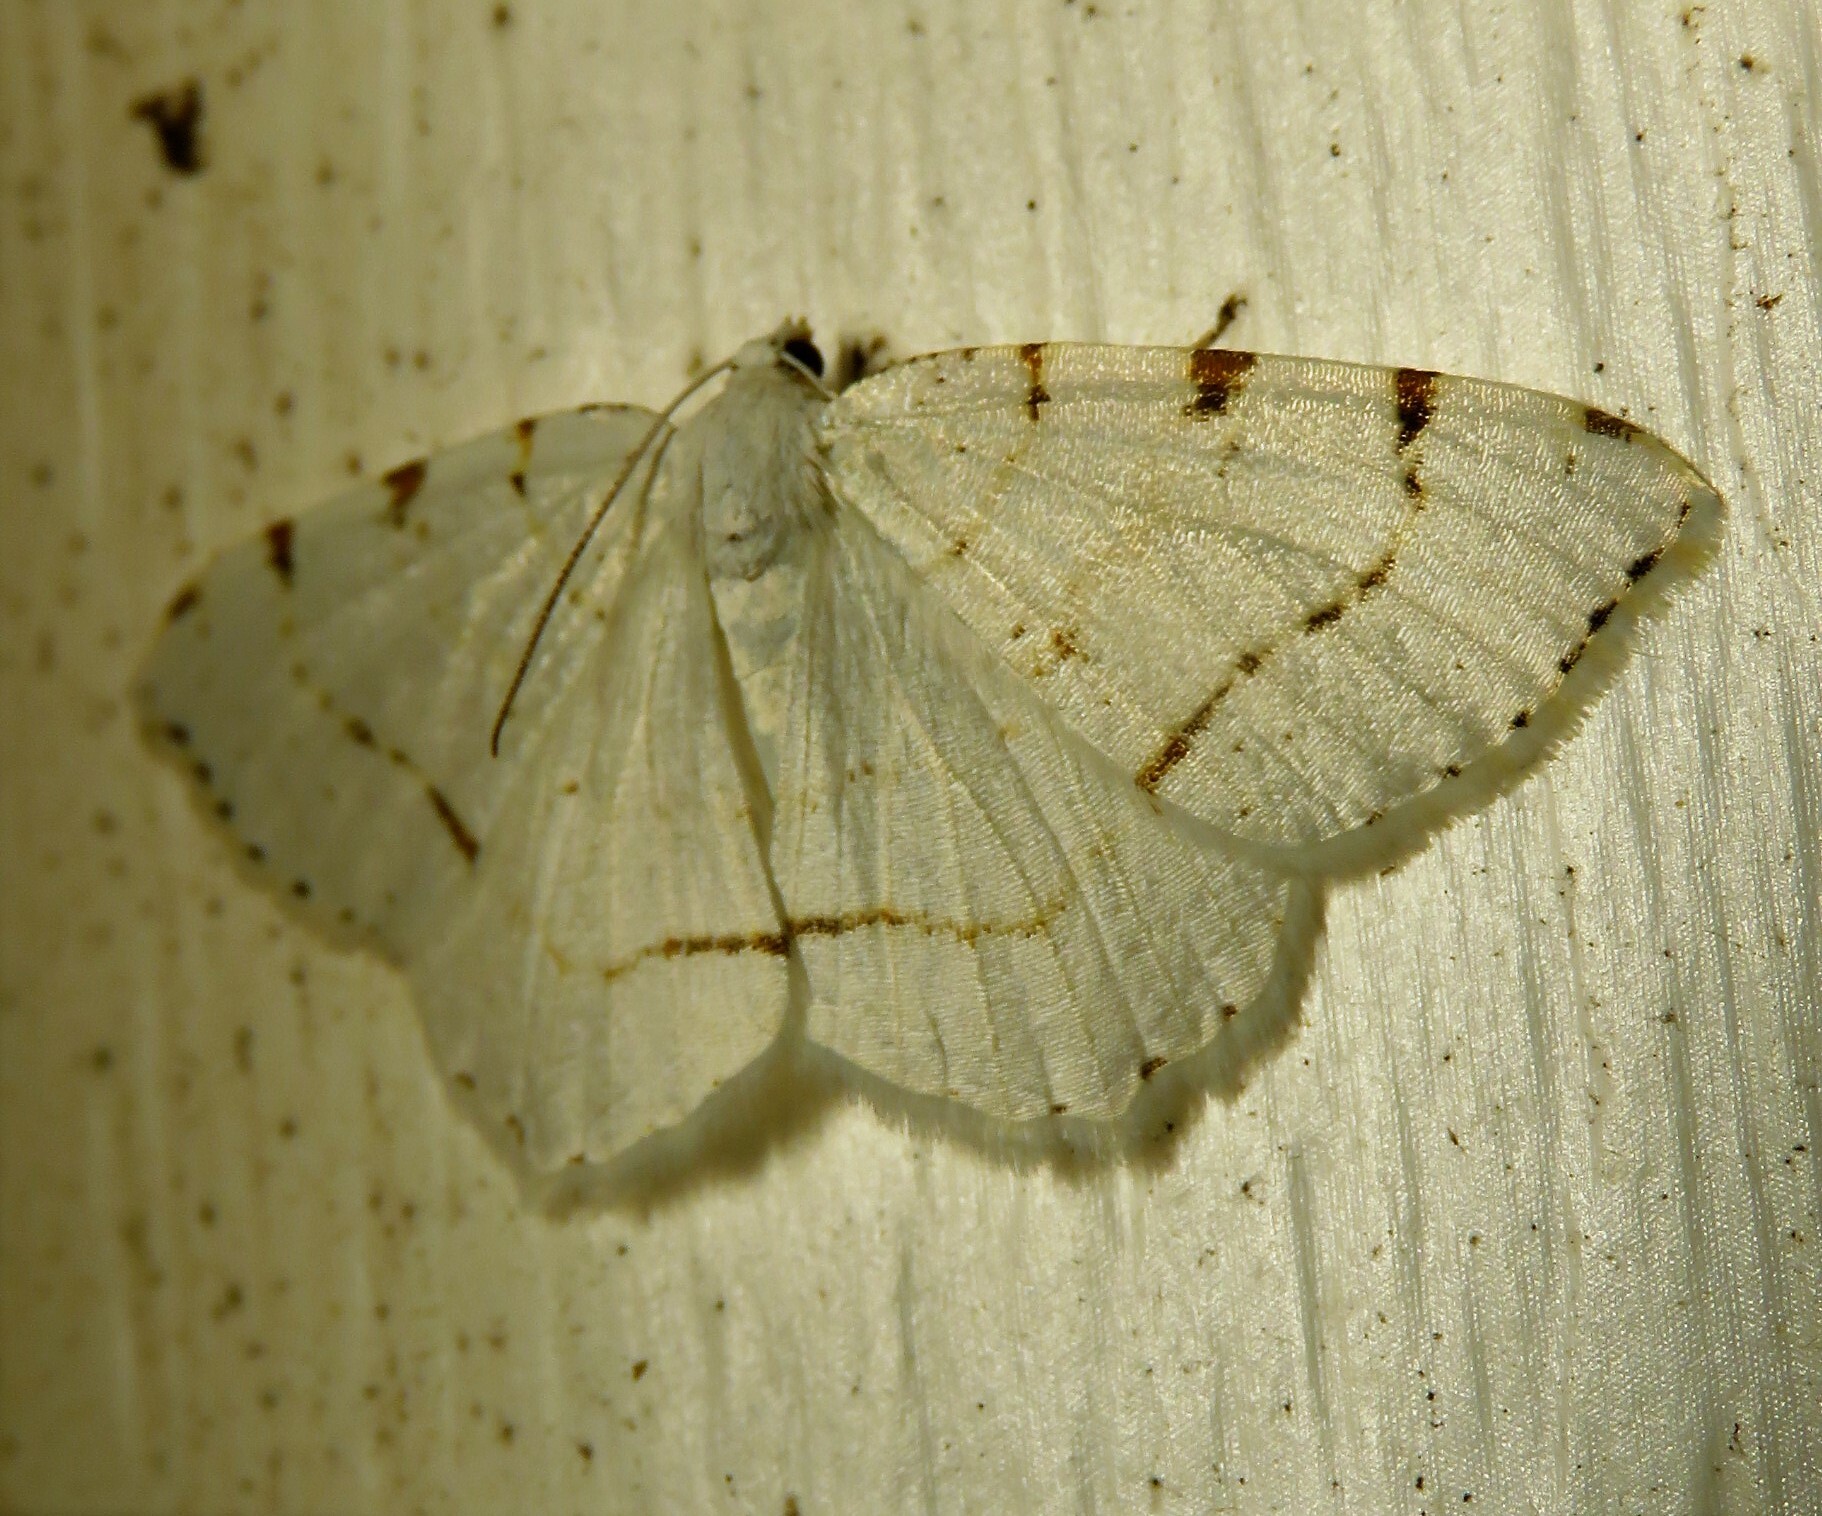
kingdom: Animalia
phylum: Arthropoda
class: Insecta
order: Lepidoptera
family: Geometridae
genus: Macaria
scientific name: Macaria pustularia
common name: Lesser maple spanworm moth
